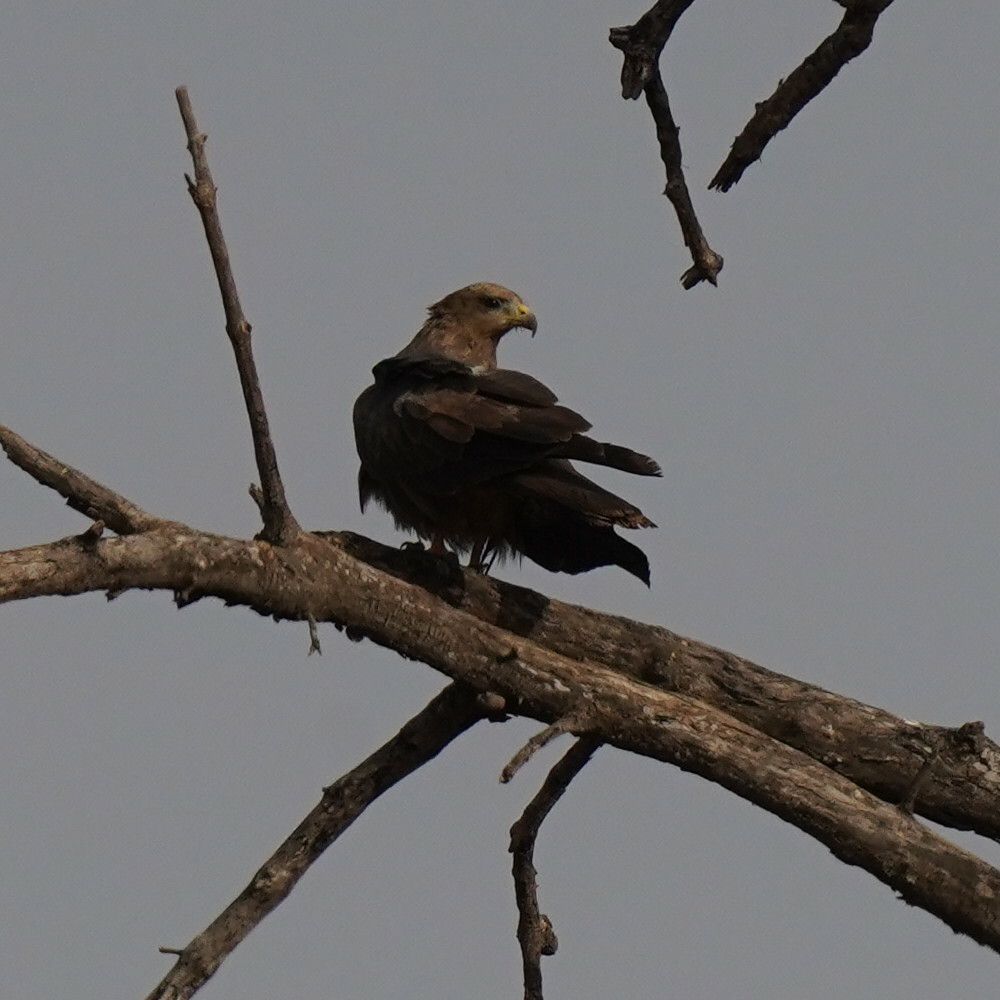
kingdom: Animalia
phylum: Chordata
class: Aves
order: Accipitriformes
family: Accipitridae
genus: Milvus
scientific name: Milvus migrans
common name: Black kite
